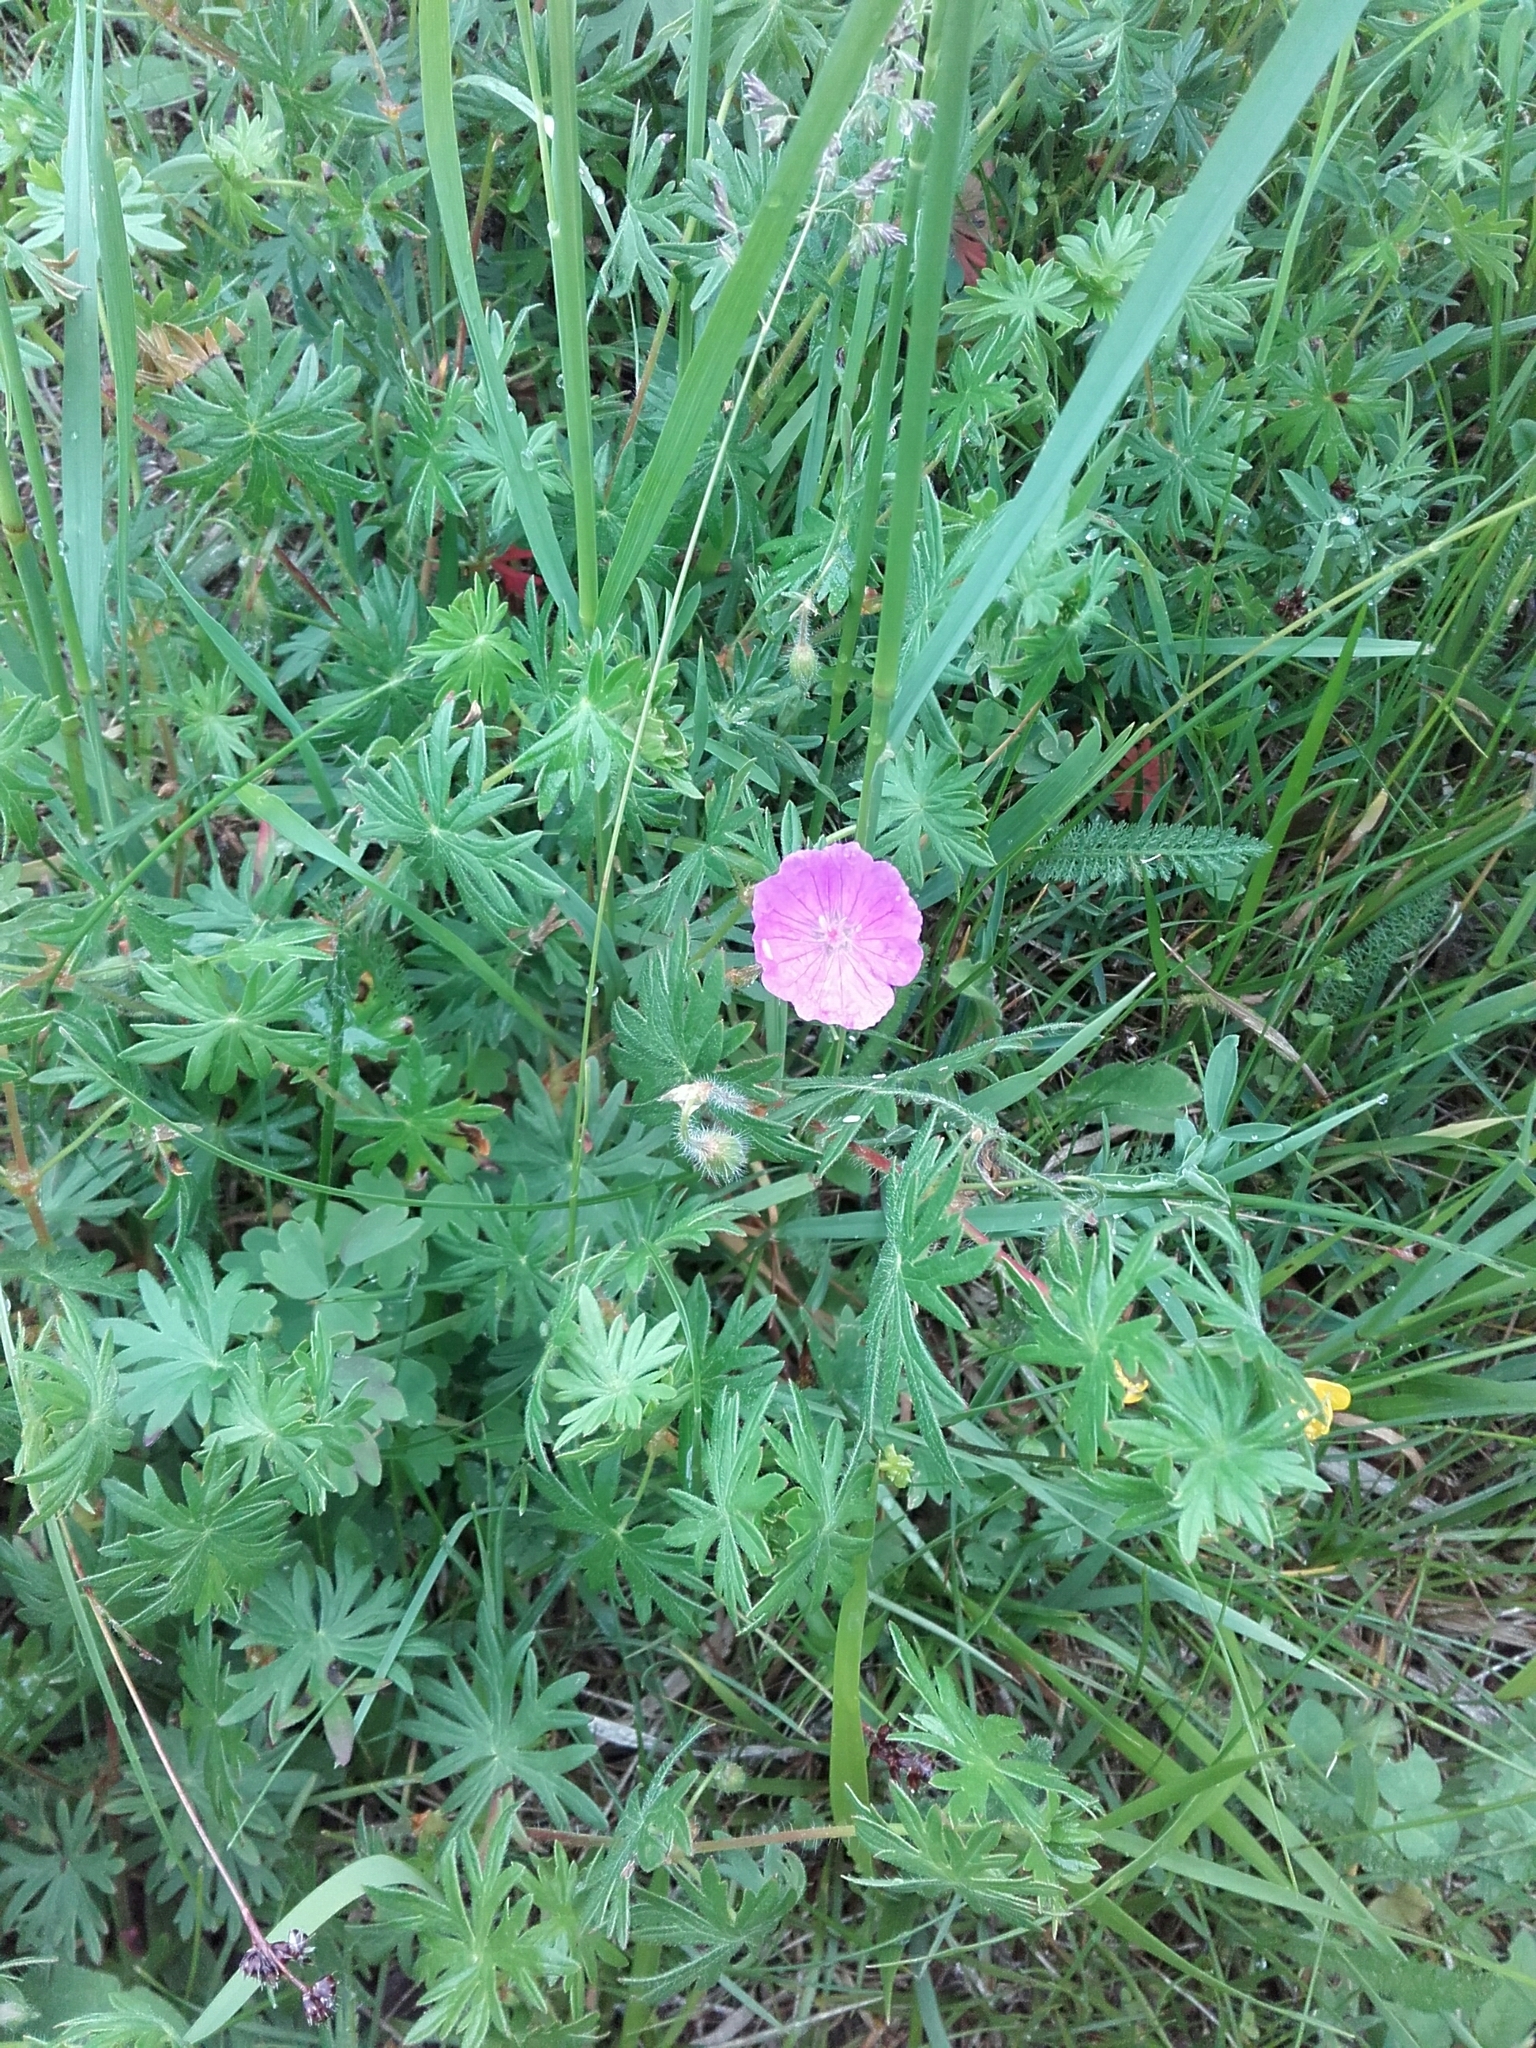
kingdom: Plantae
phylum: Tracheophyta
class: Magnoliopsida
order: Geraniales
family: Geraniaceae
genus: Geranium
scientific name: Geranium sanguineum
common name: Bloody crane's-bill
